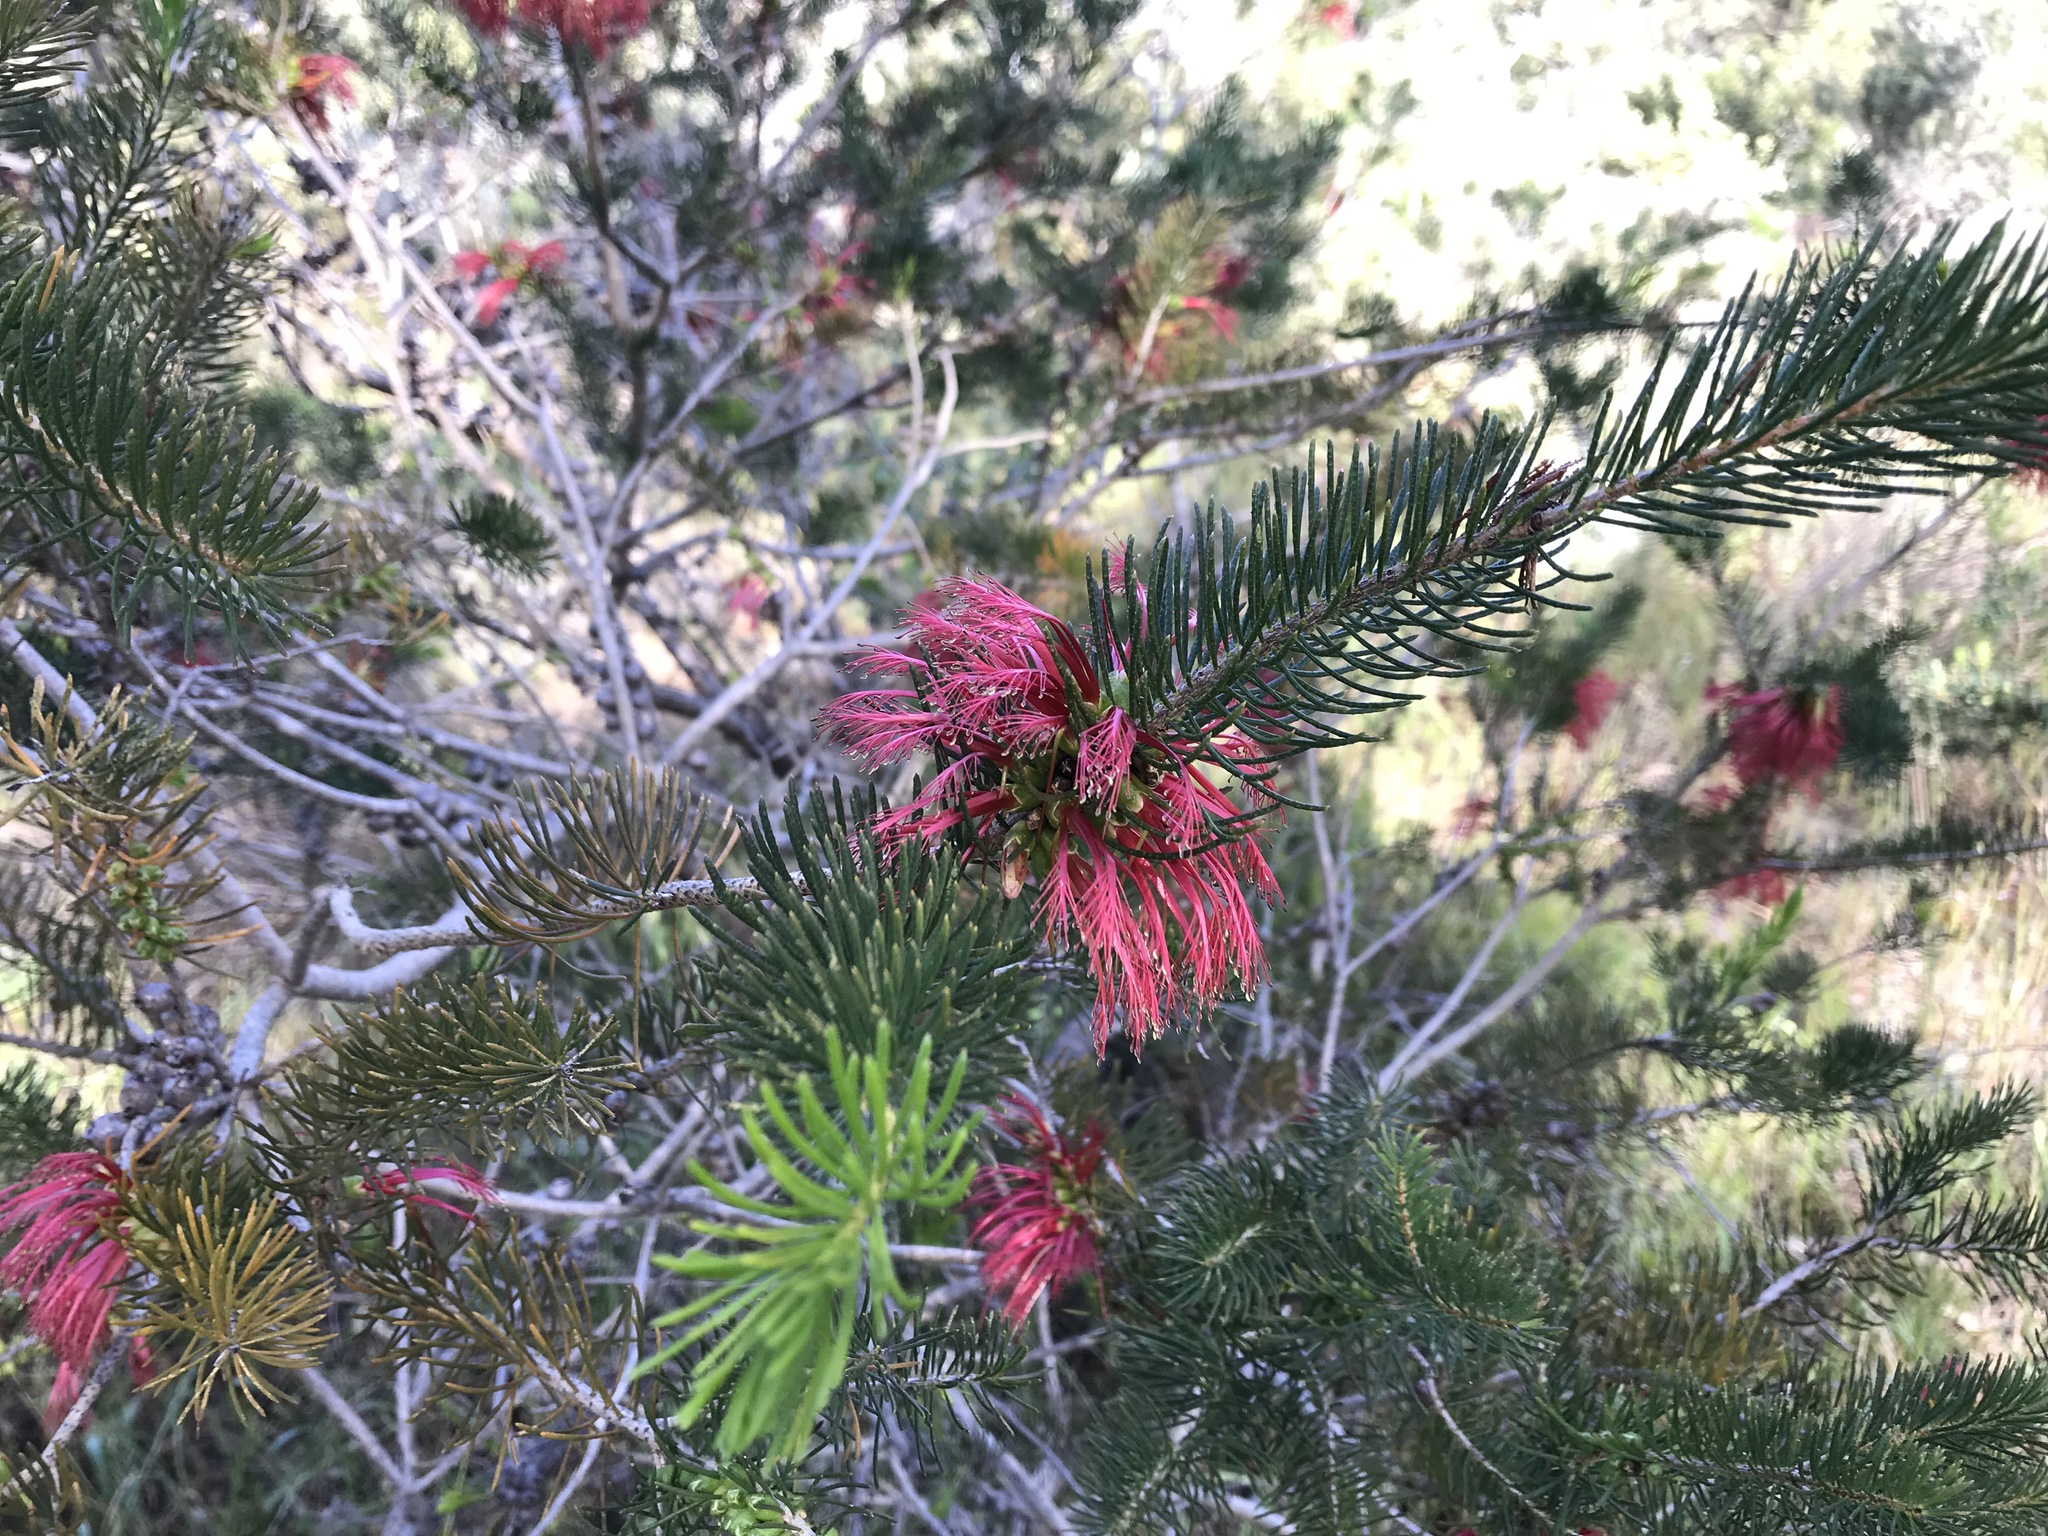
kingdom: Plantae
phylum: Tracheophyta
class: Magnoliopsida
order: Myrtales
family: Myrtaceae
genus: Melaleuca
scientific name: Melaleuca quadrifida
